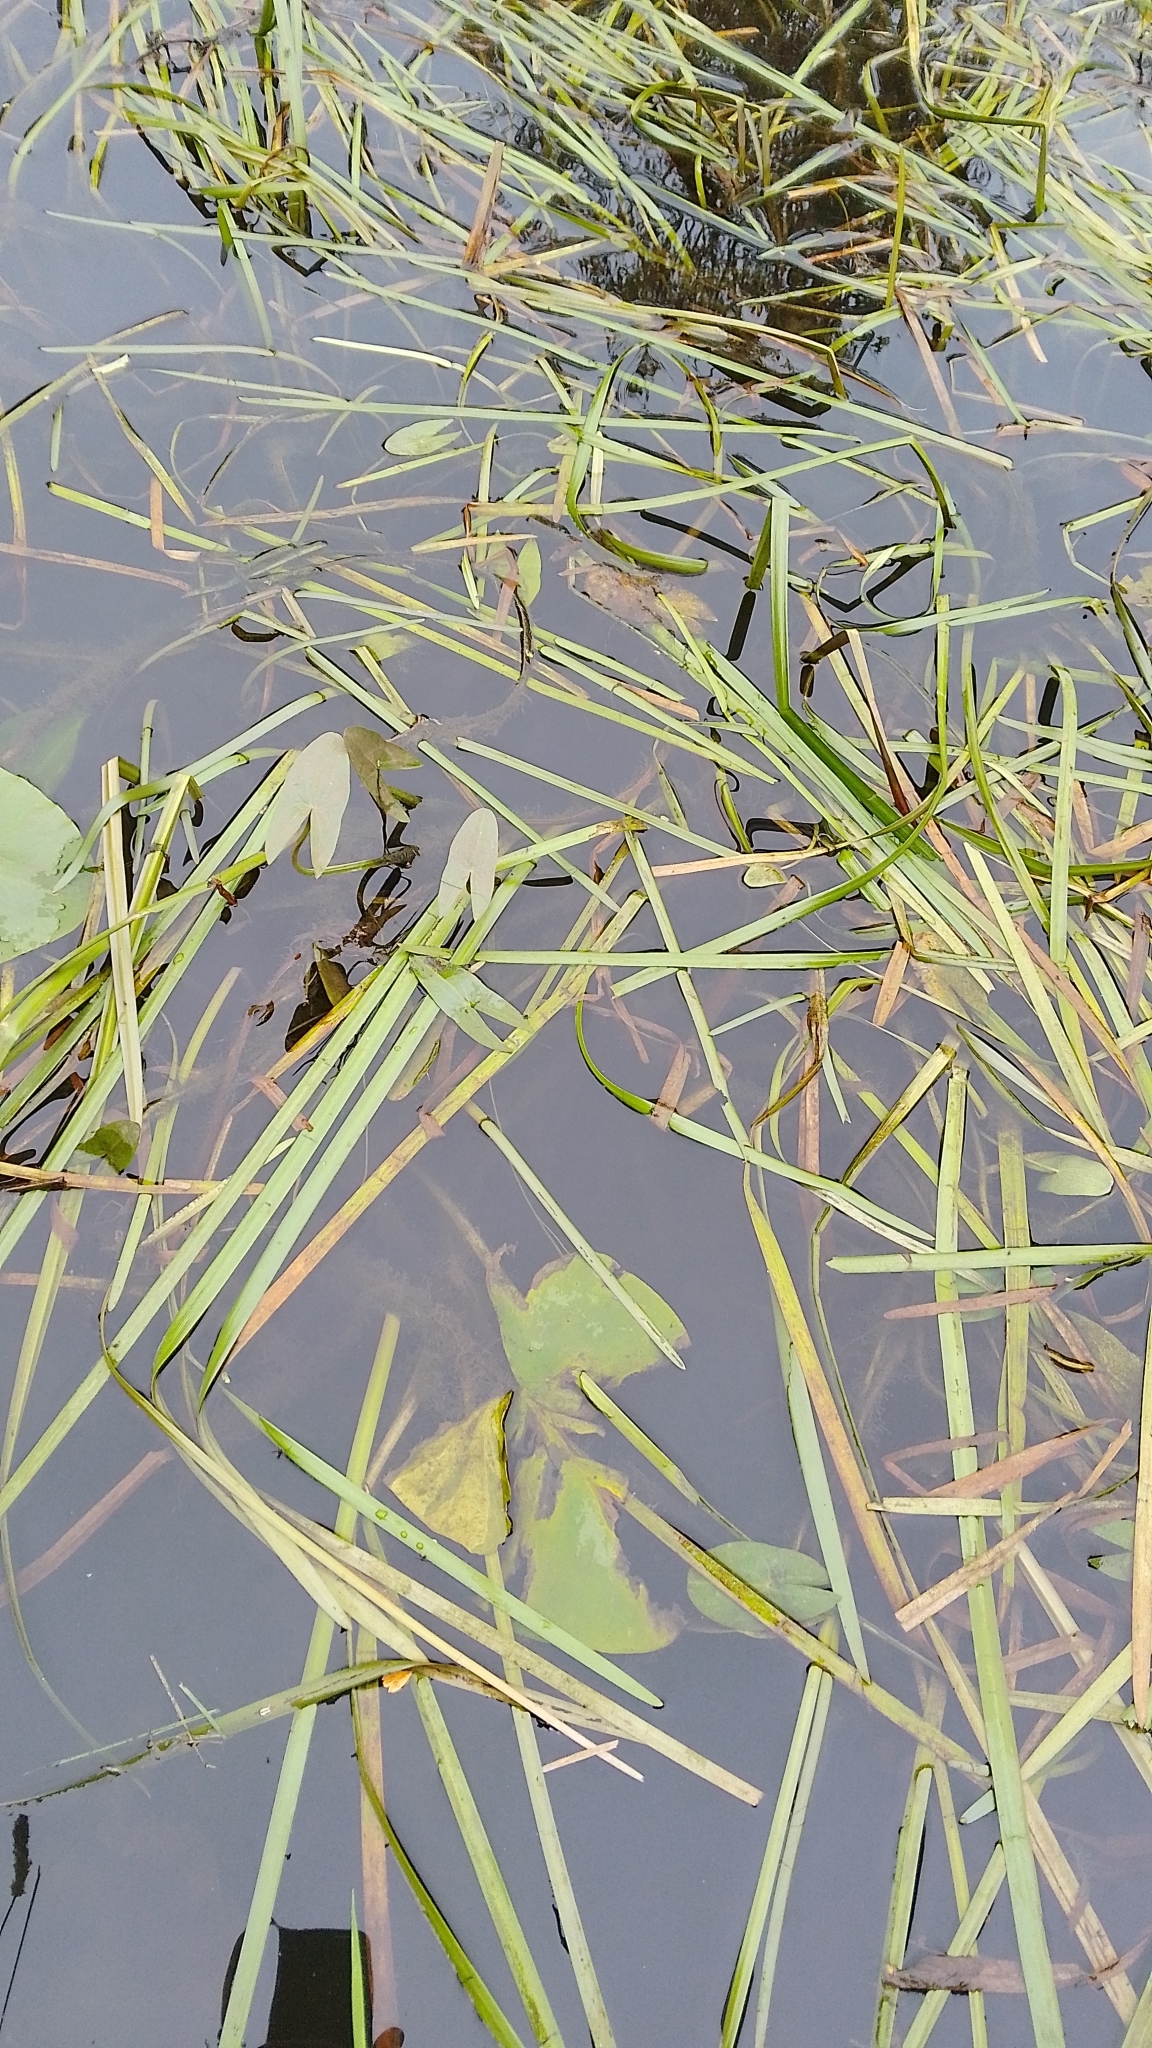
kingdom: Plantae
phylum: Tracheophyta
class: Liliopsida
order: Alismatales
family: Alismataceae
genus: Sagittaria
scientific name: Sagittaria sagittifolia
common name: Arrowhead
